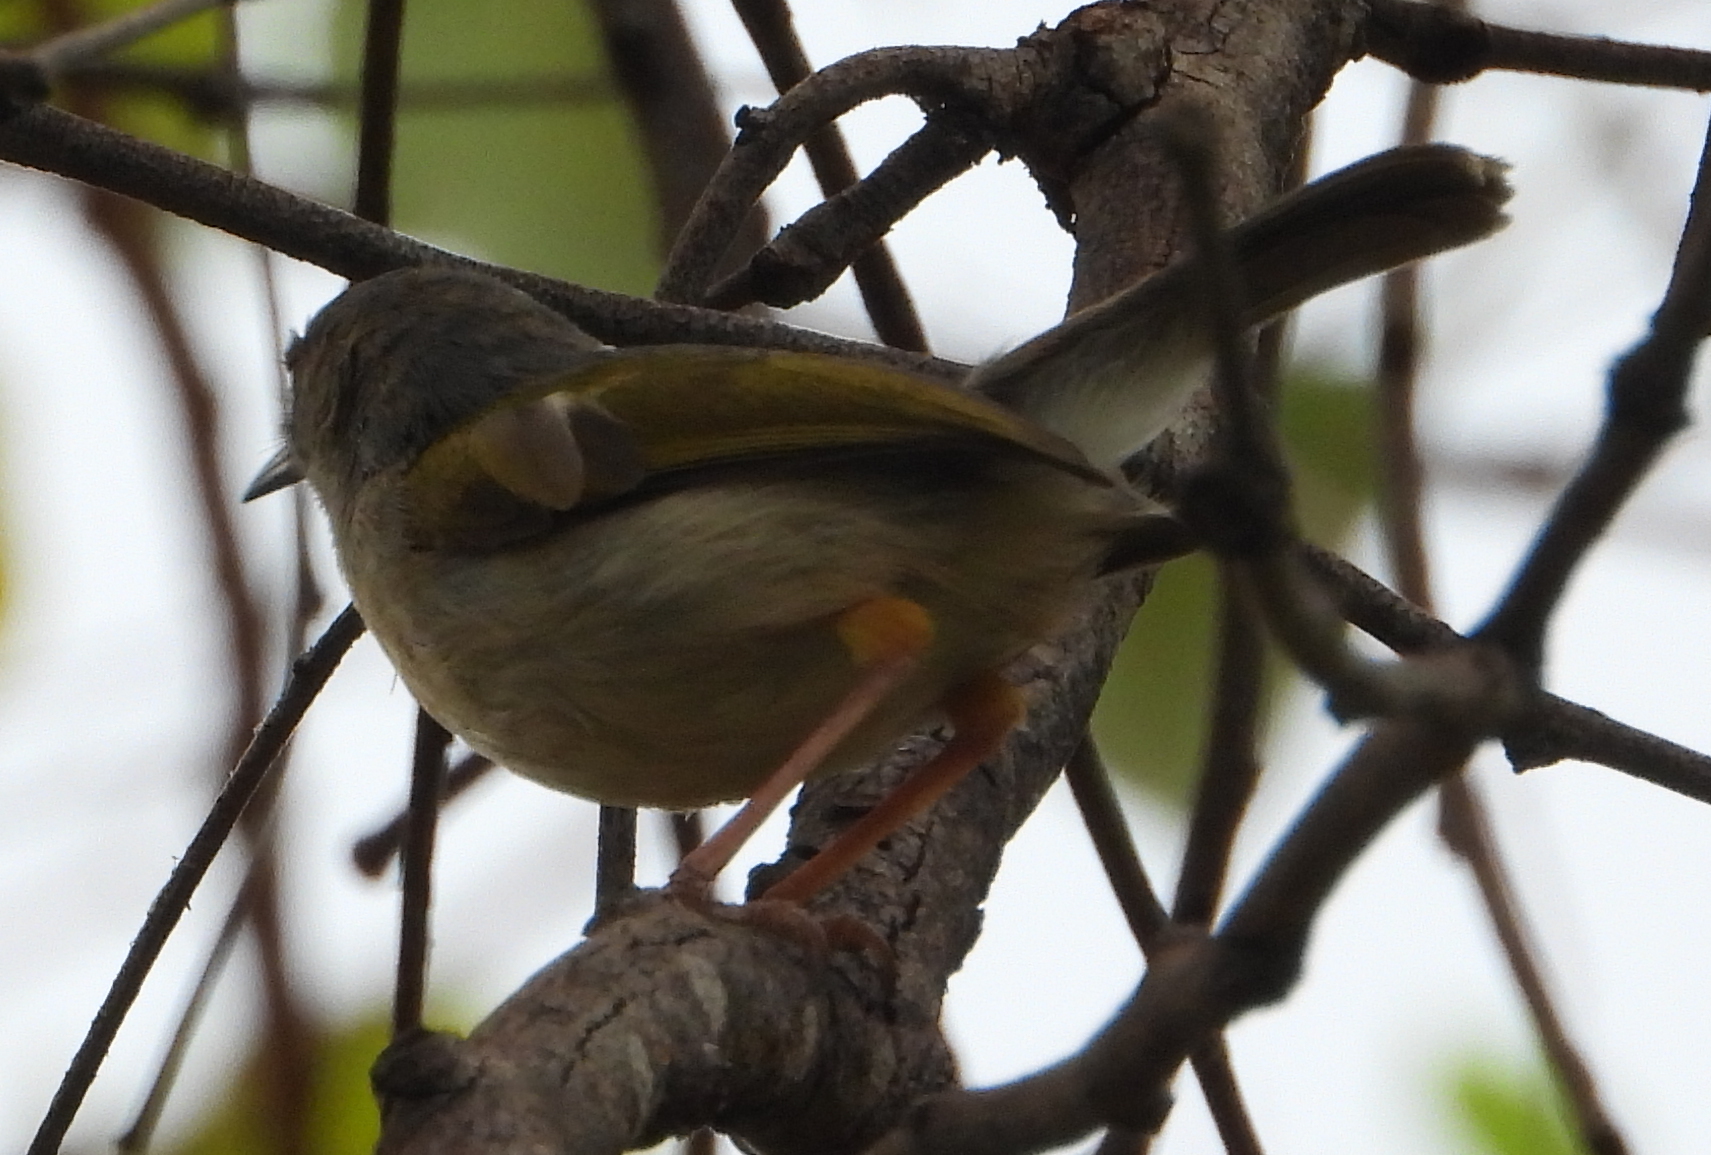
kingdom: Animalia
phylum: Chordata
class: Aves
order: Passeriformes
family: Cisticolidae
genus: Camaroptera
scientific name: Camaroptera brachyura
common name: Green-backed camaroptera
